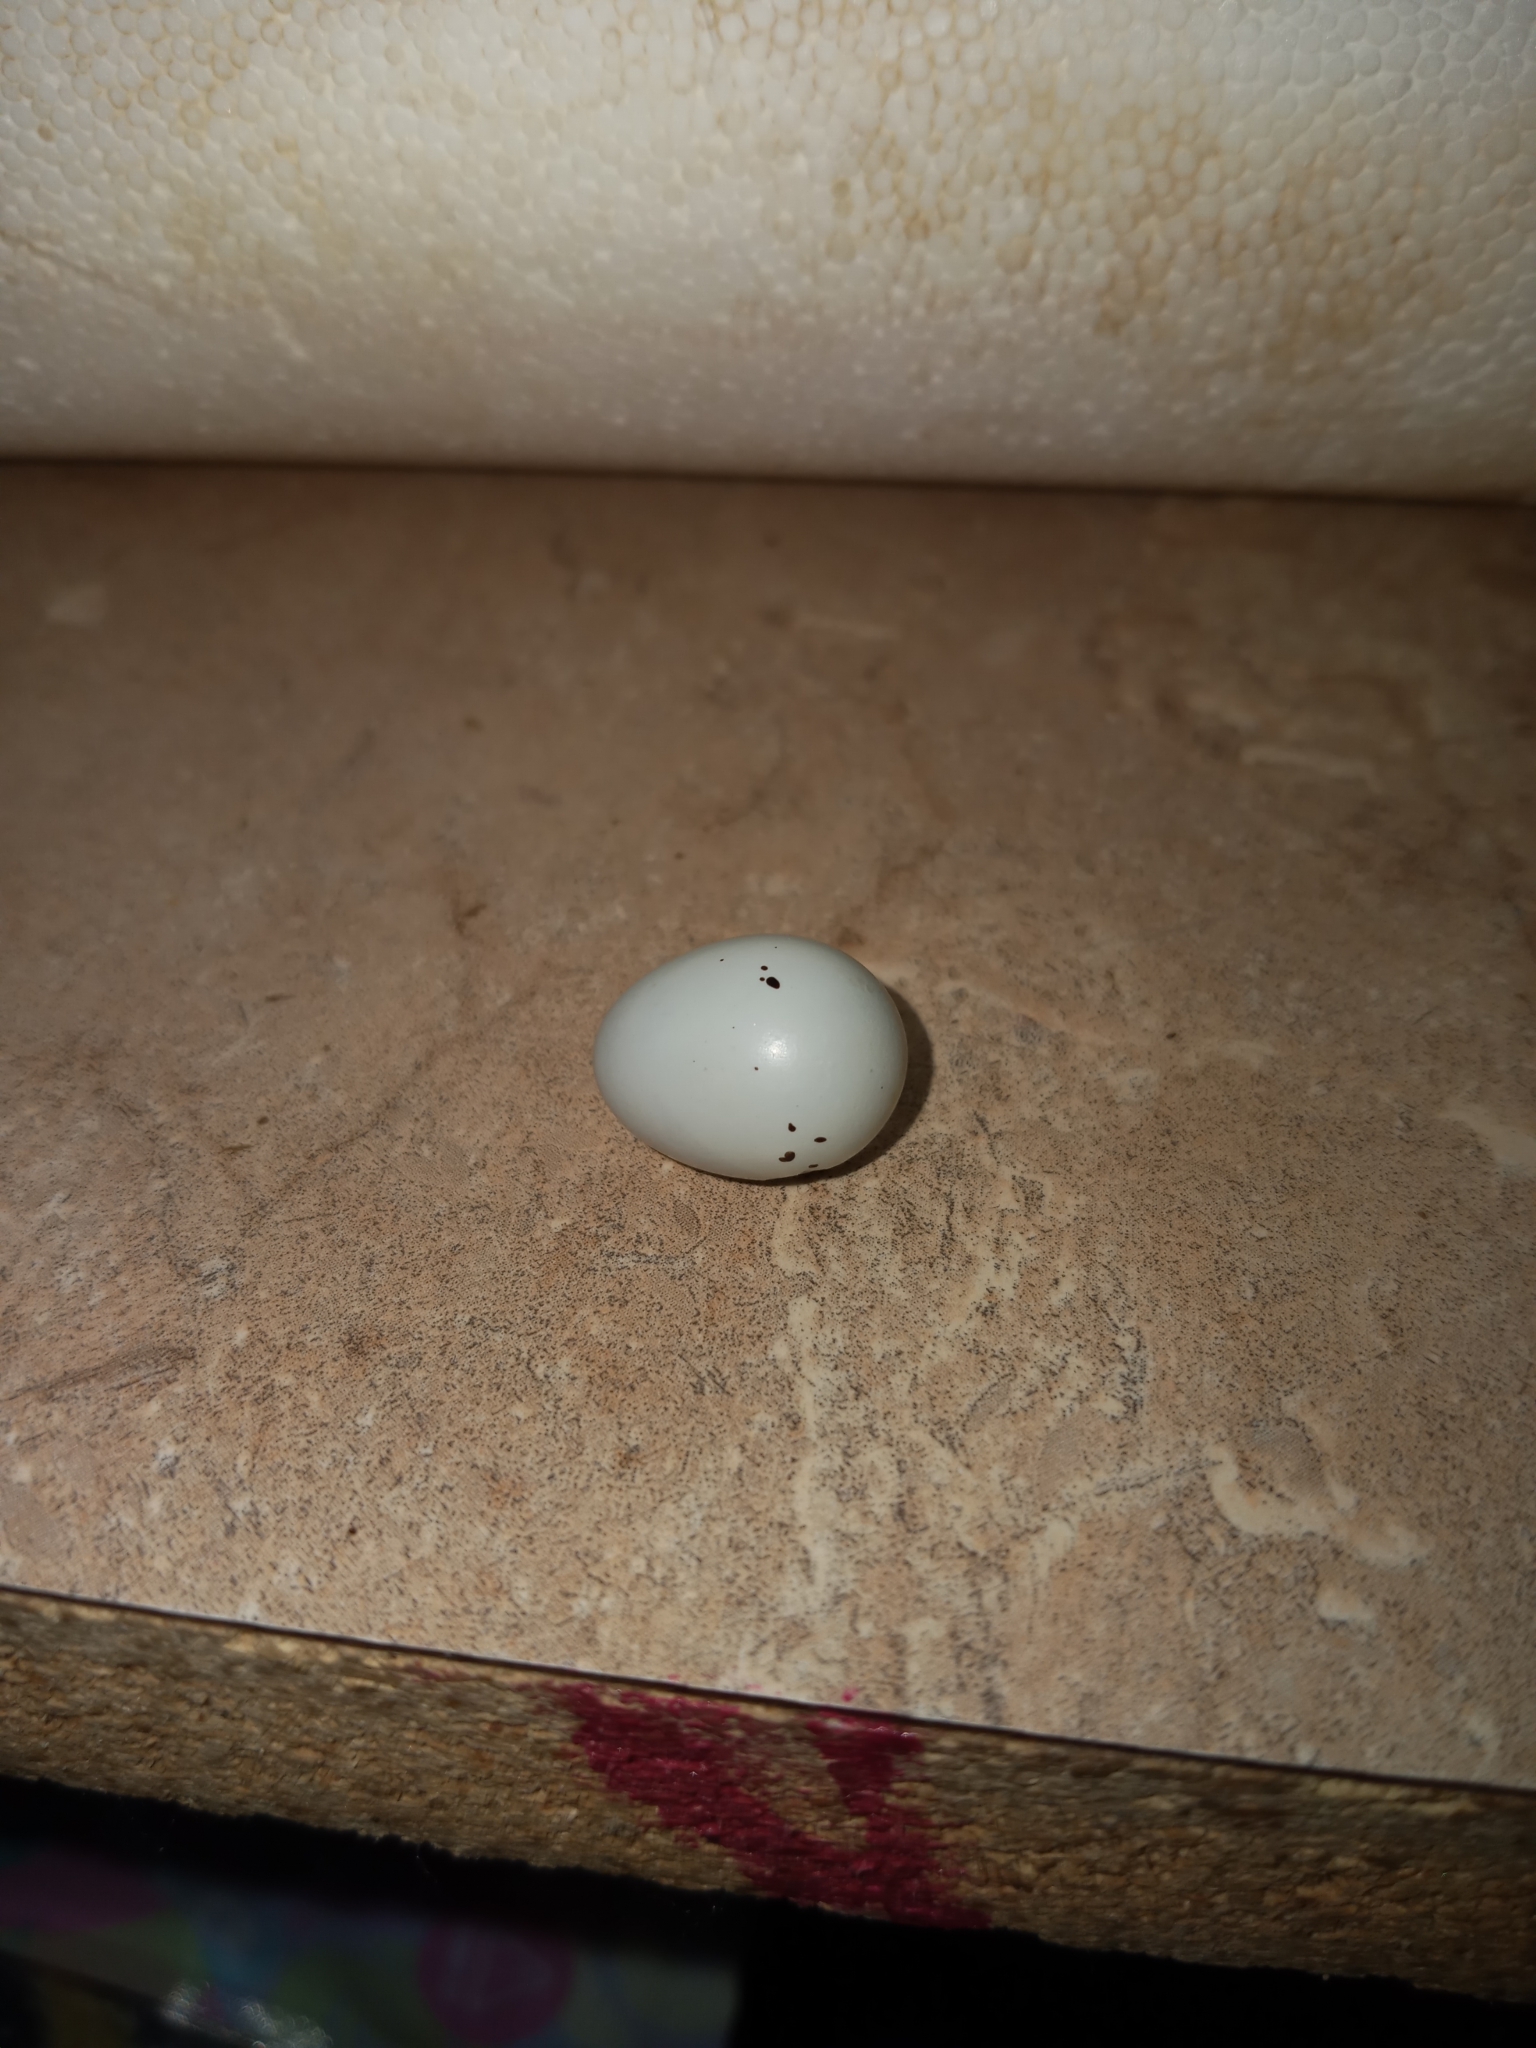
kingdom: Animalia
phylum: Chordata
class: Aves
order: Passeriformes
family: Hirundinidae
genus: Hirundo
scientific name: Hirundo rustica
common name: Barn swallow
